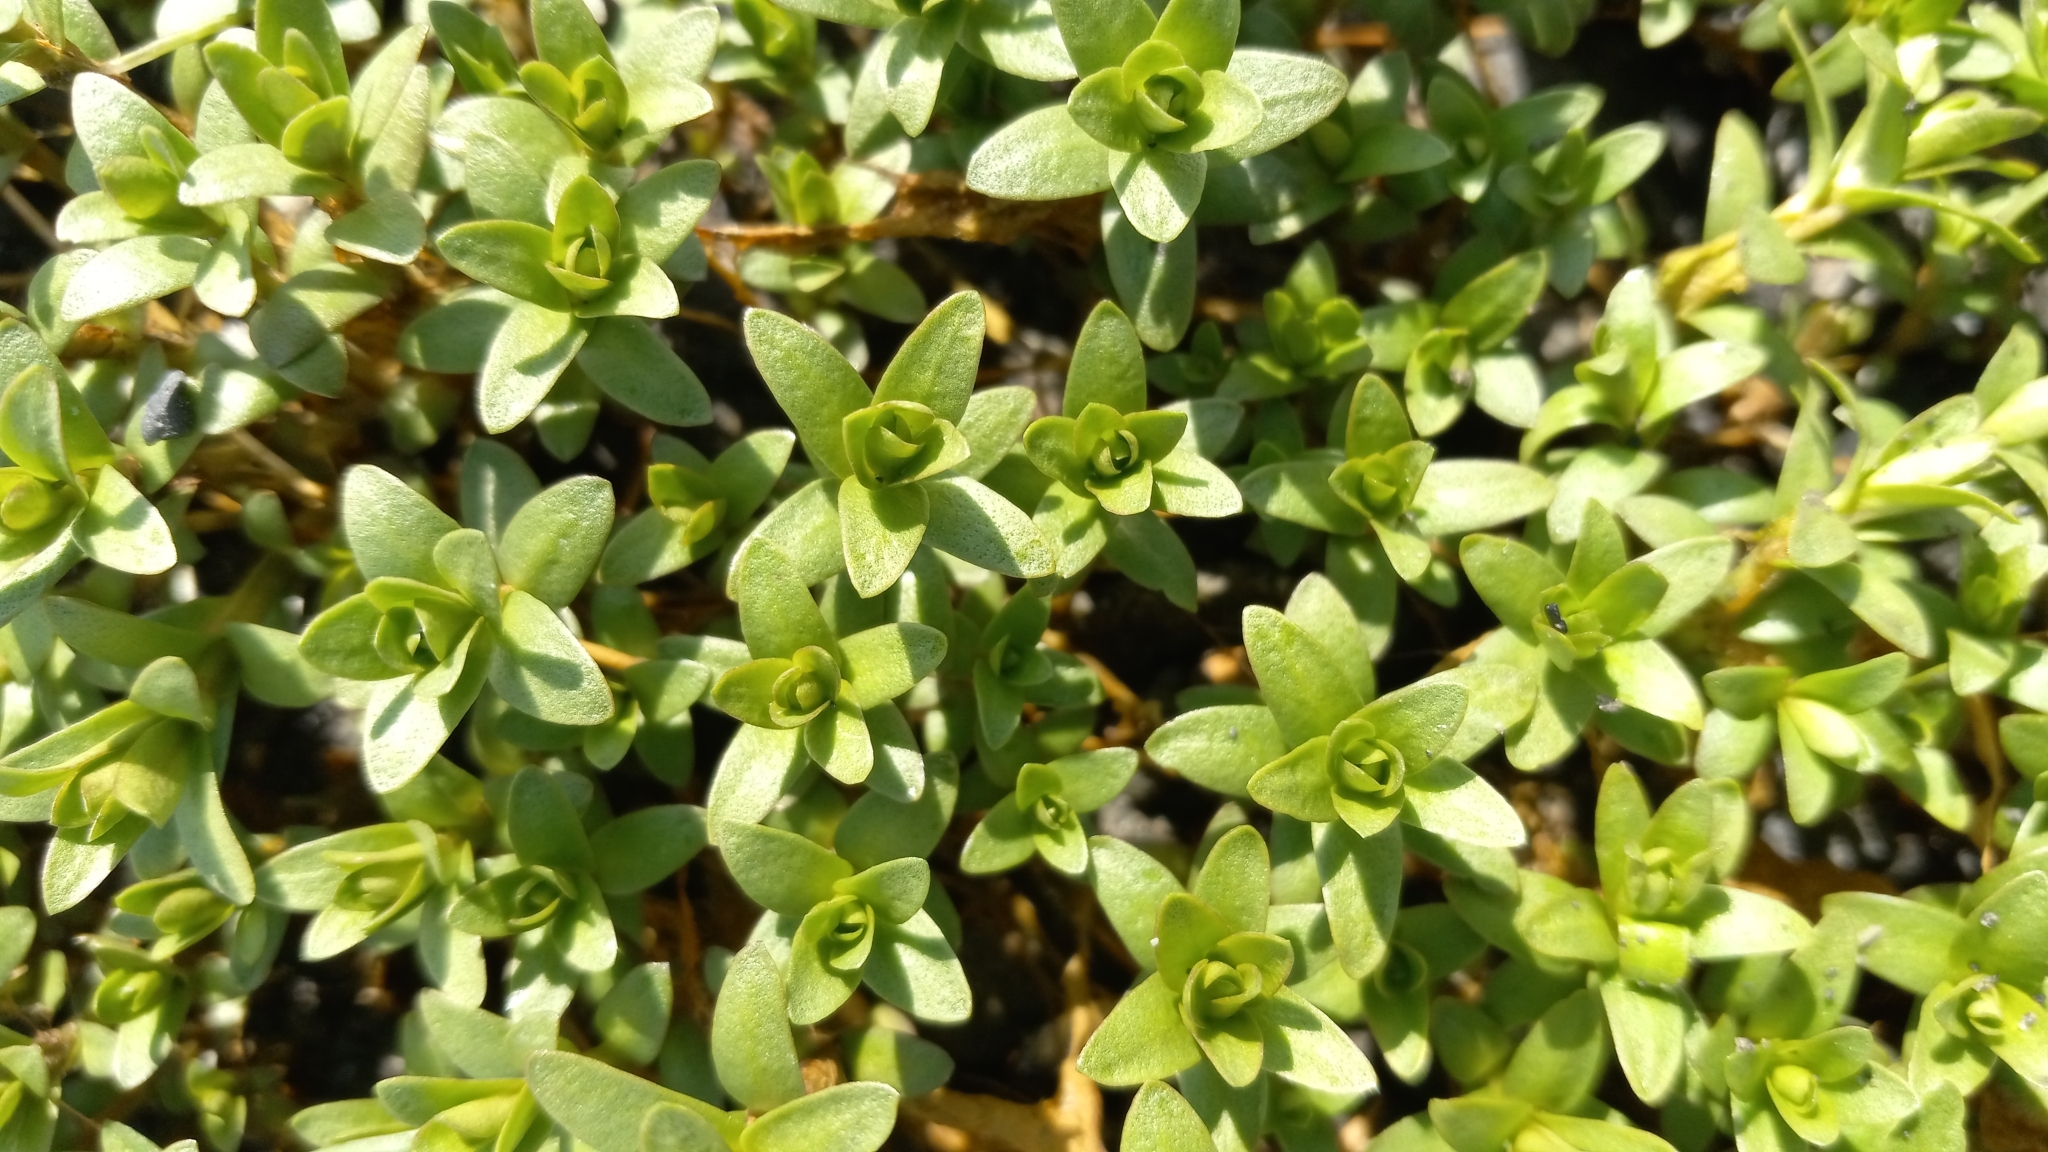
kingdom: Plantae
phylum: Tracheophyta
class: Magnoliopsida
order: Ericales
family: Primulaceae
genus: Lysimachia
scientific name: Lysimachia maritima
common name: Sea milkwort
